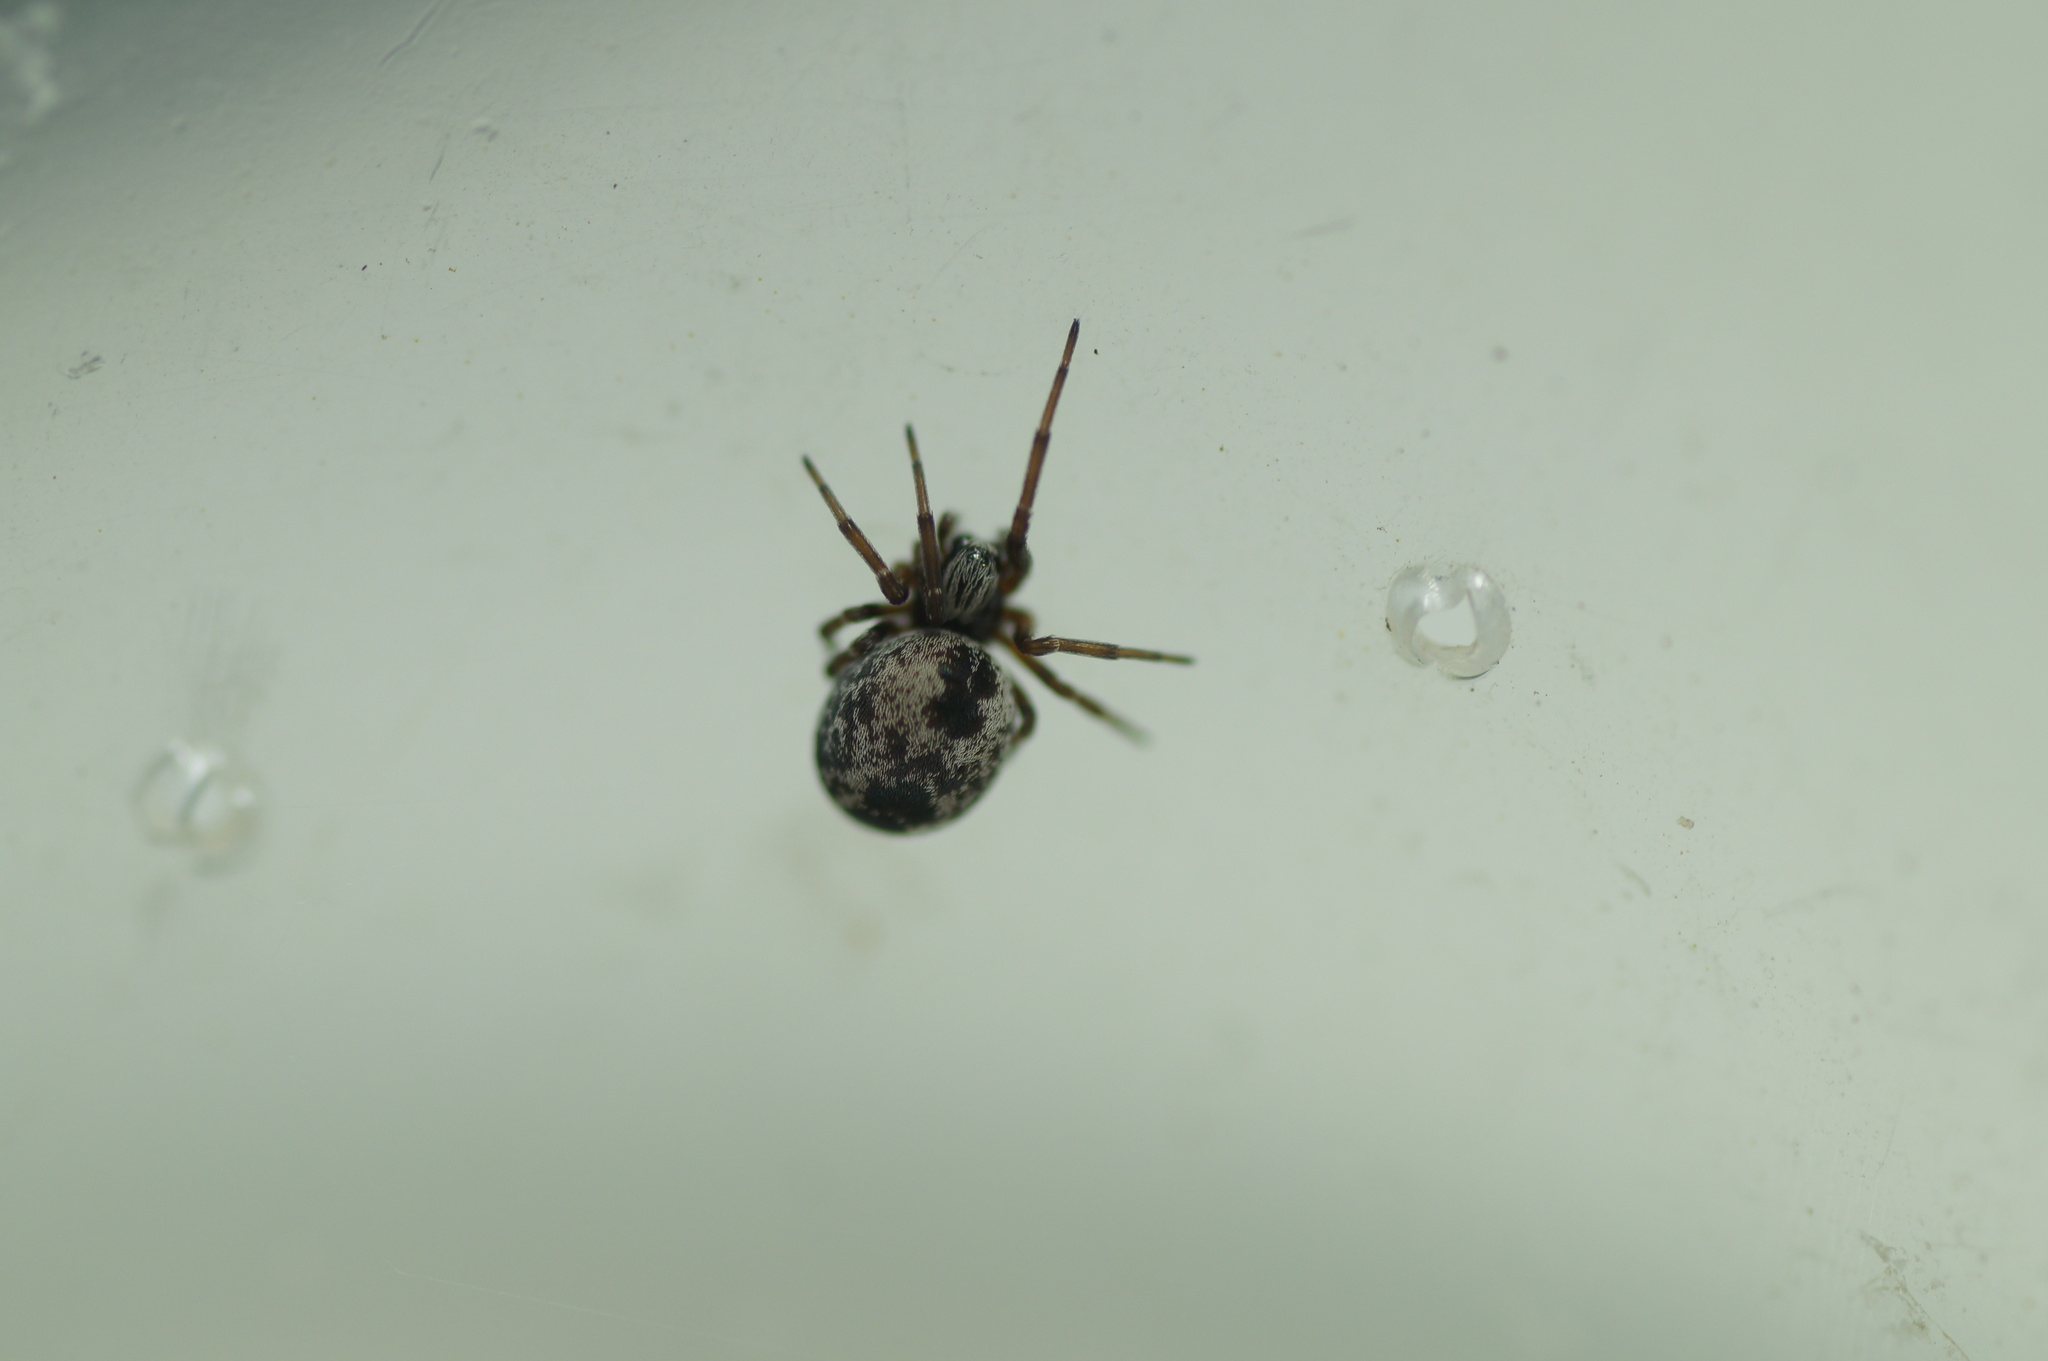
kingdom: Animalia
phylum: Arthropoda
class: Arachnida
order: Araneae
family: Dictynidae
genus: Dictyna
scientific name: Dictyna arundinacea
